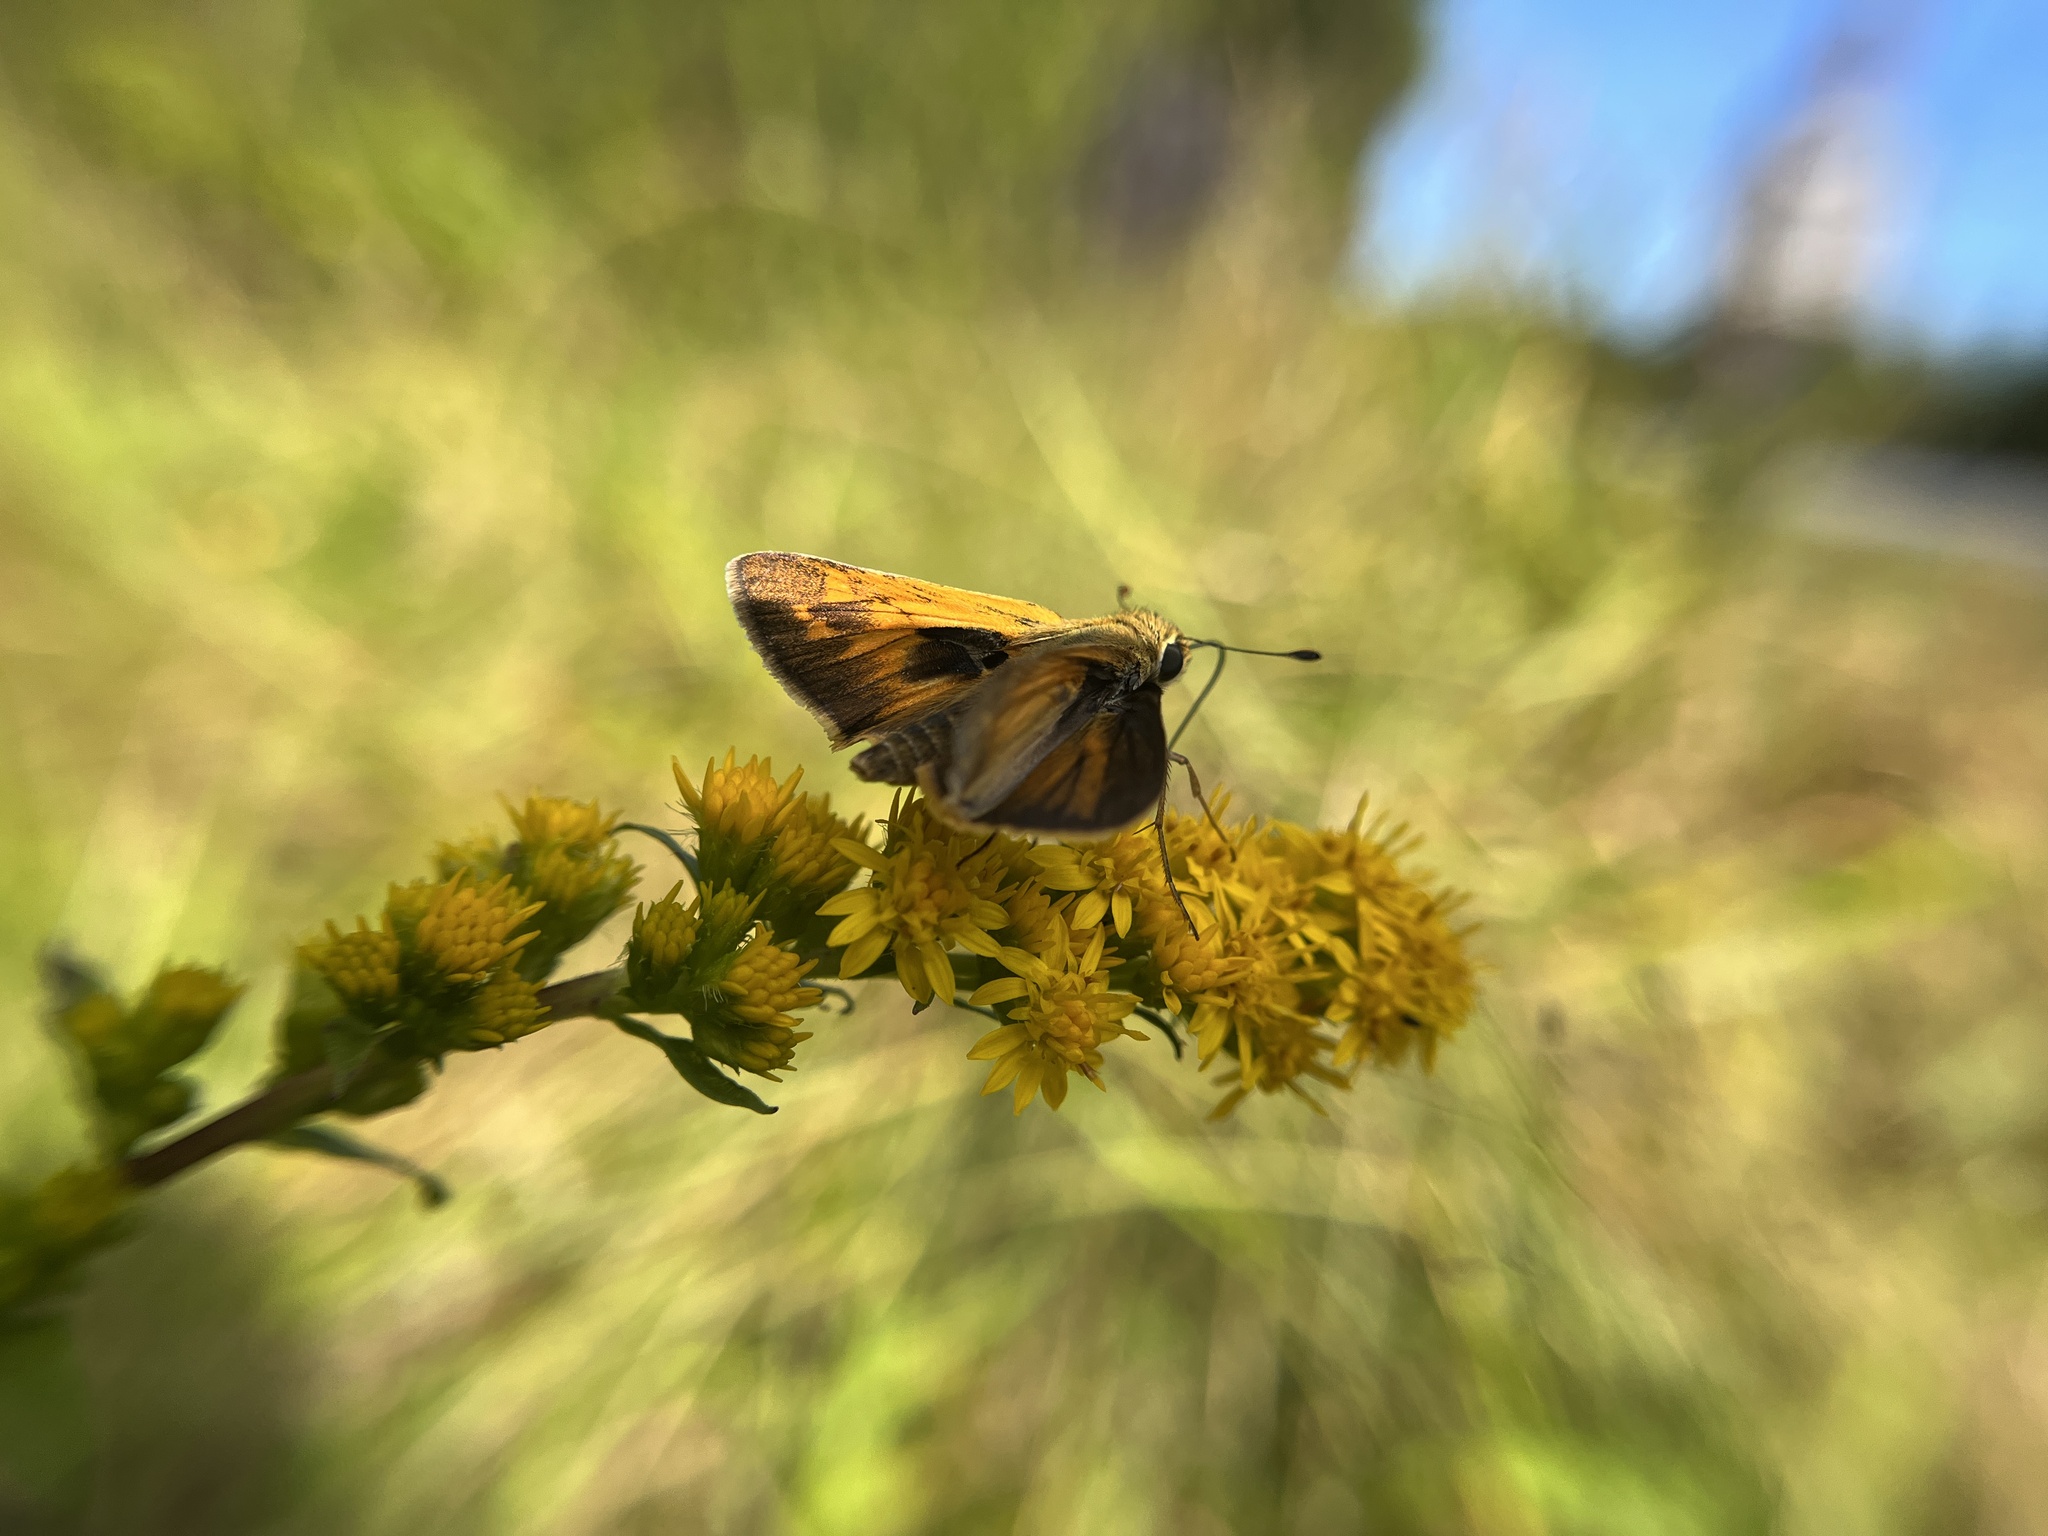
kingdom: Animalia
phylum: Arthropoda
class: Insecta
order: Lepidoptera
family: Hesperiidae
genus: Atalopedes
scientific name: Atalopedes
